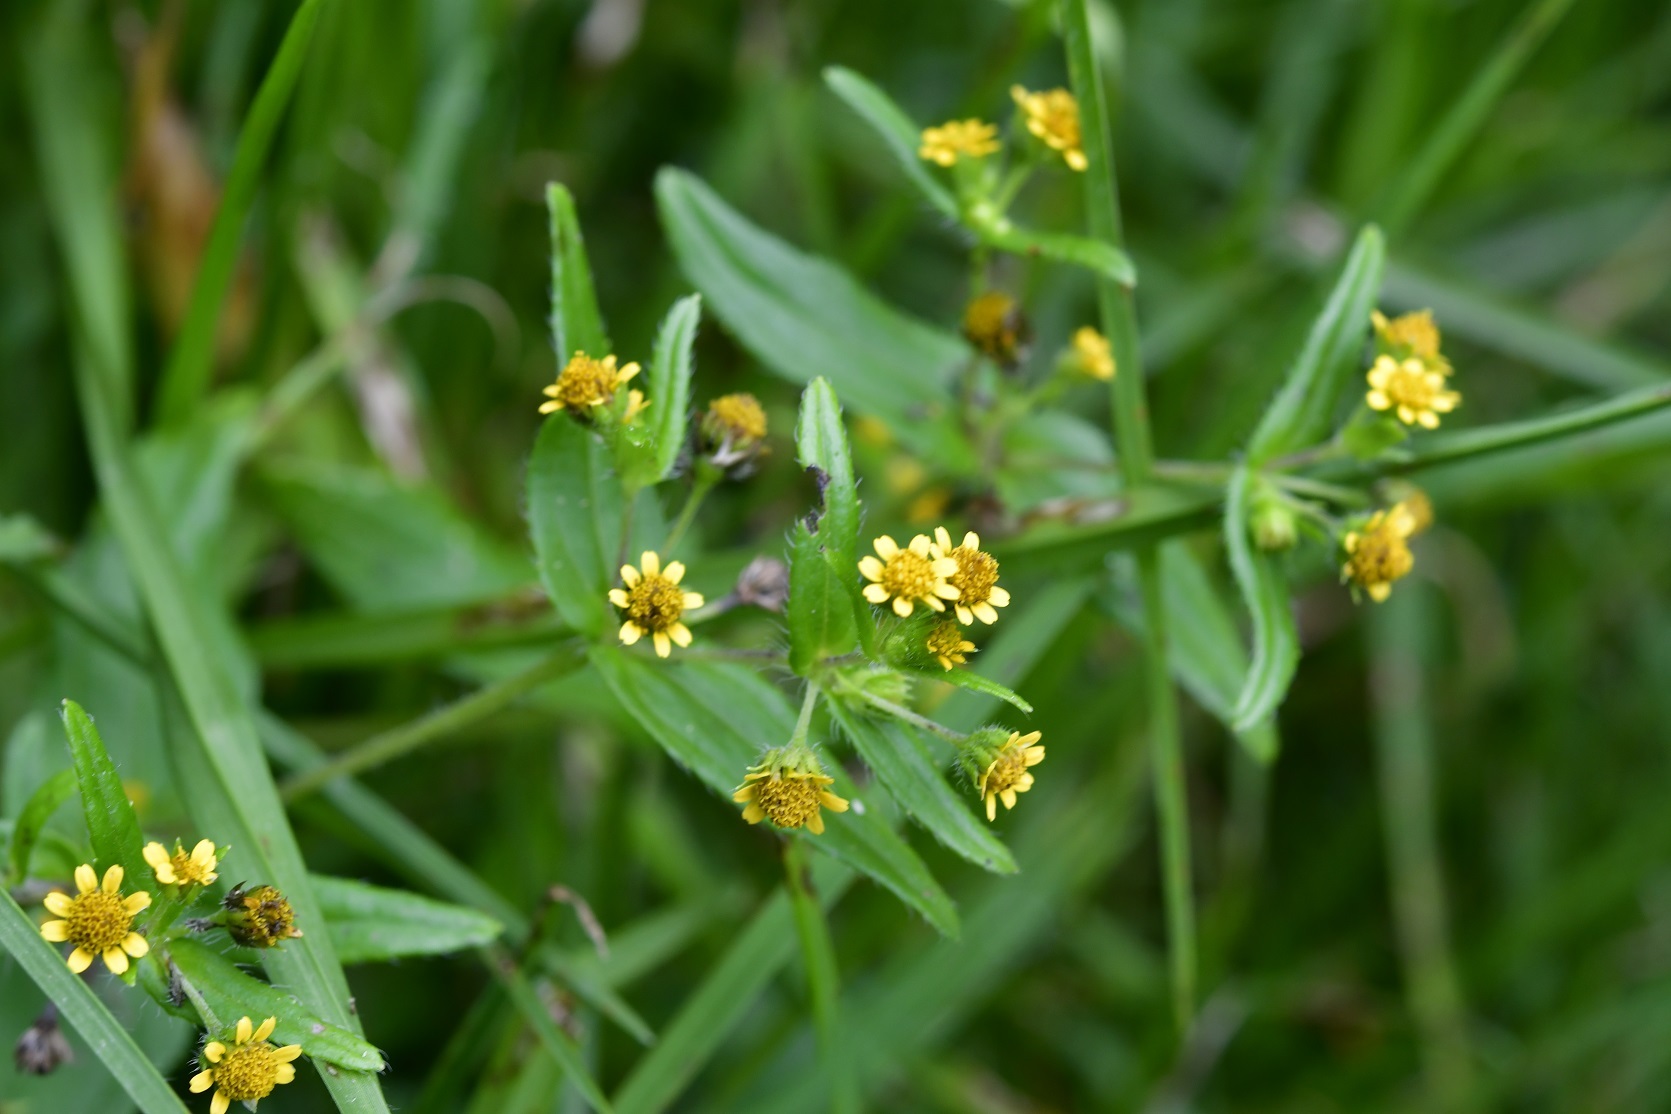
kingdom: Plantae
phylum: Tracheophyta
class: Magnoliopsida
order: Asterales
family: Asteraceae
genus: Jaegeria
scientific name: Jaegeria hirta
